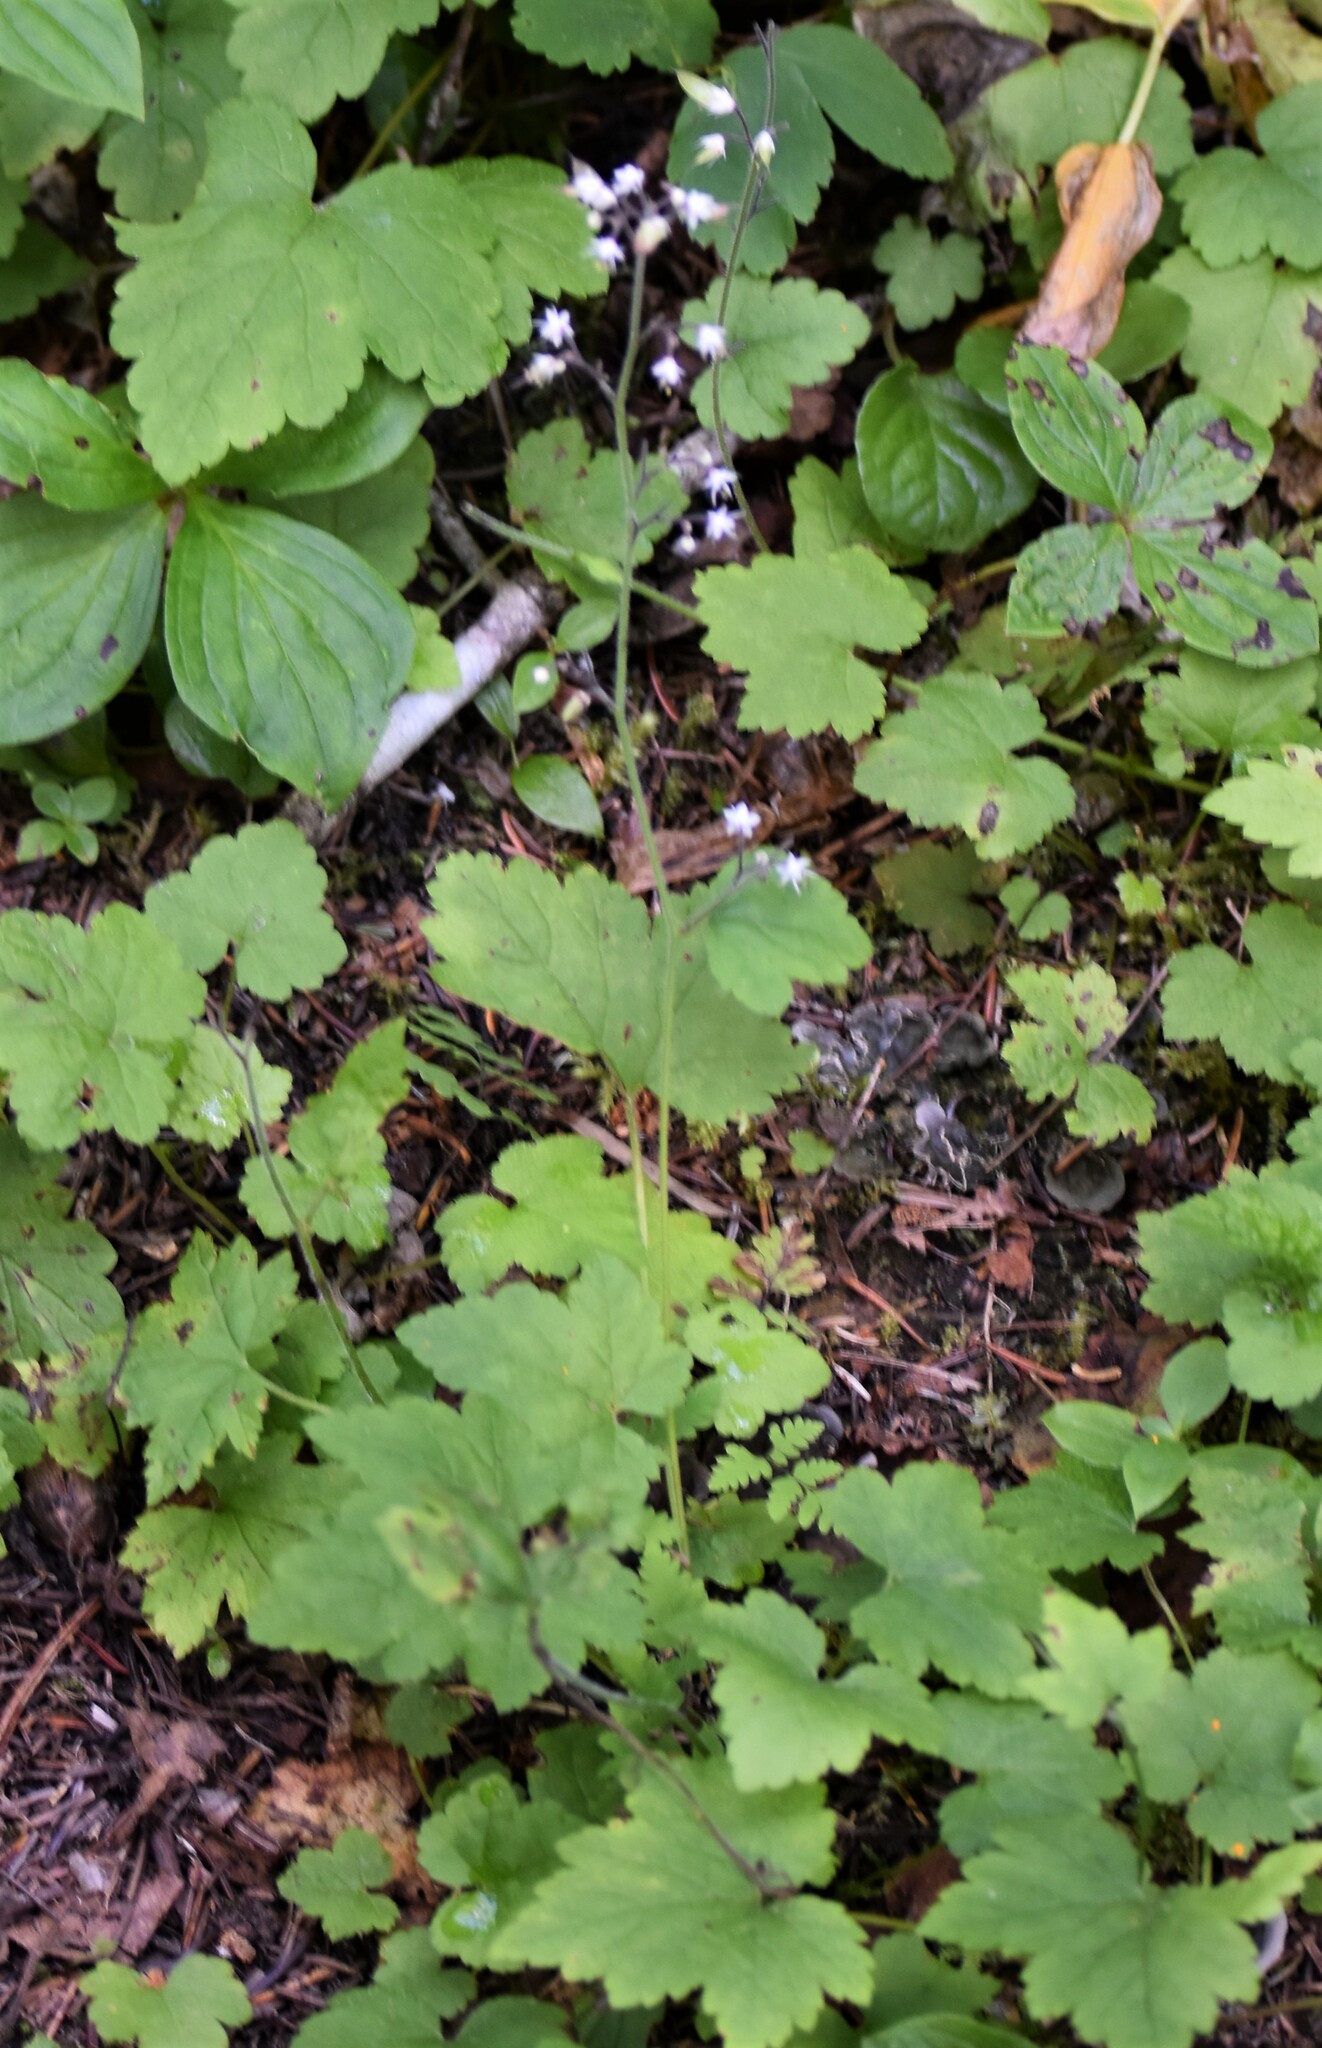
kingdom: Plantae
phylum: Tracheophyta
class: Magnoliopsida
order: Saxifragales
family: Saxifragaceae
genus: Tiarella
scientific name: Tiarella trifoliata
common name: Sugar-scoop
